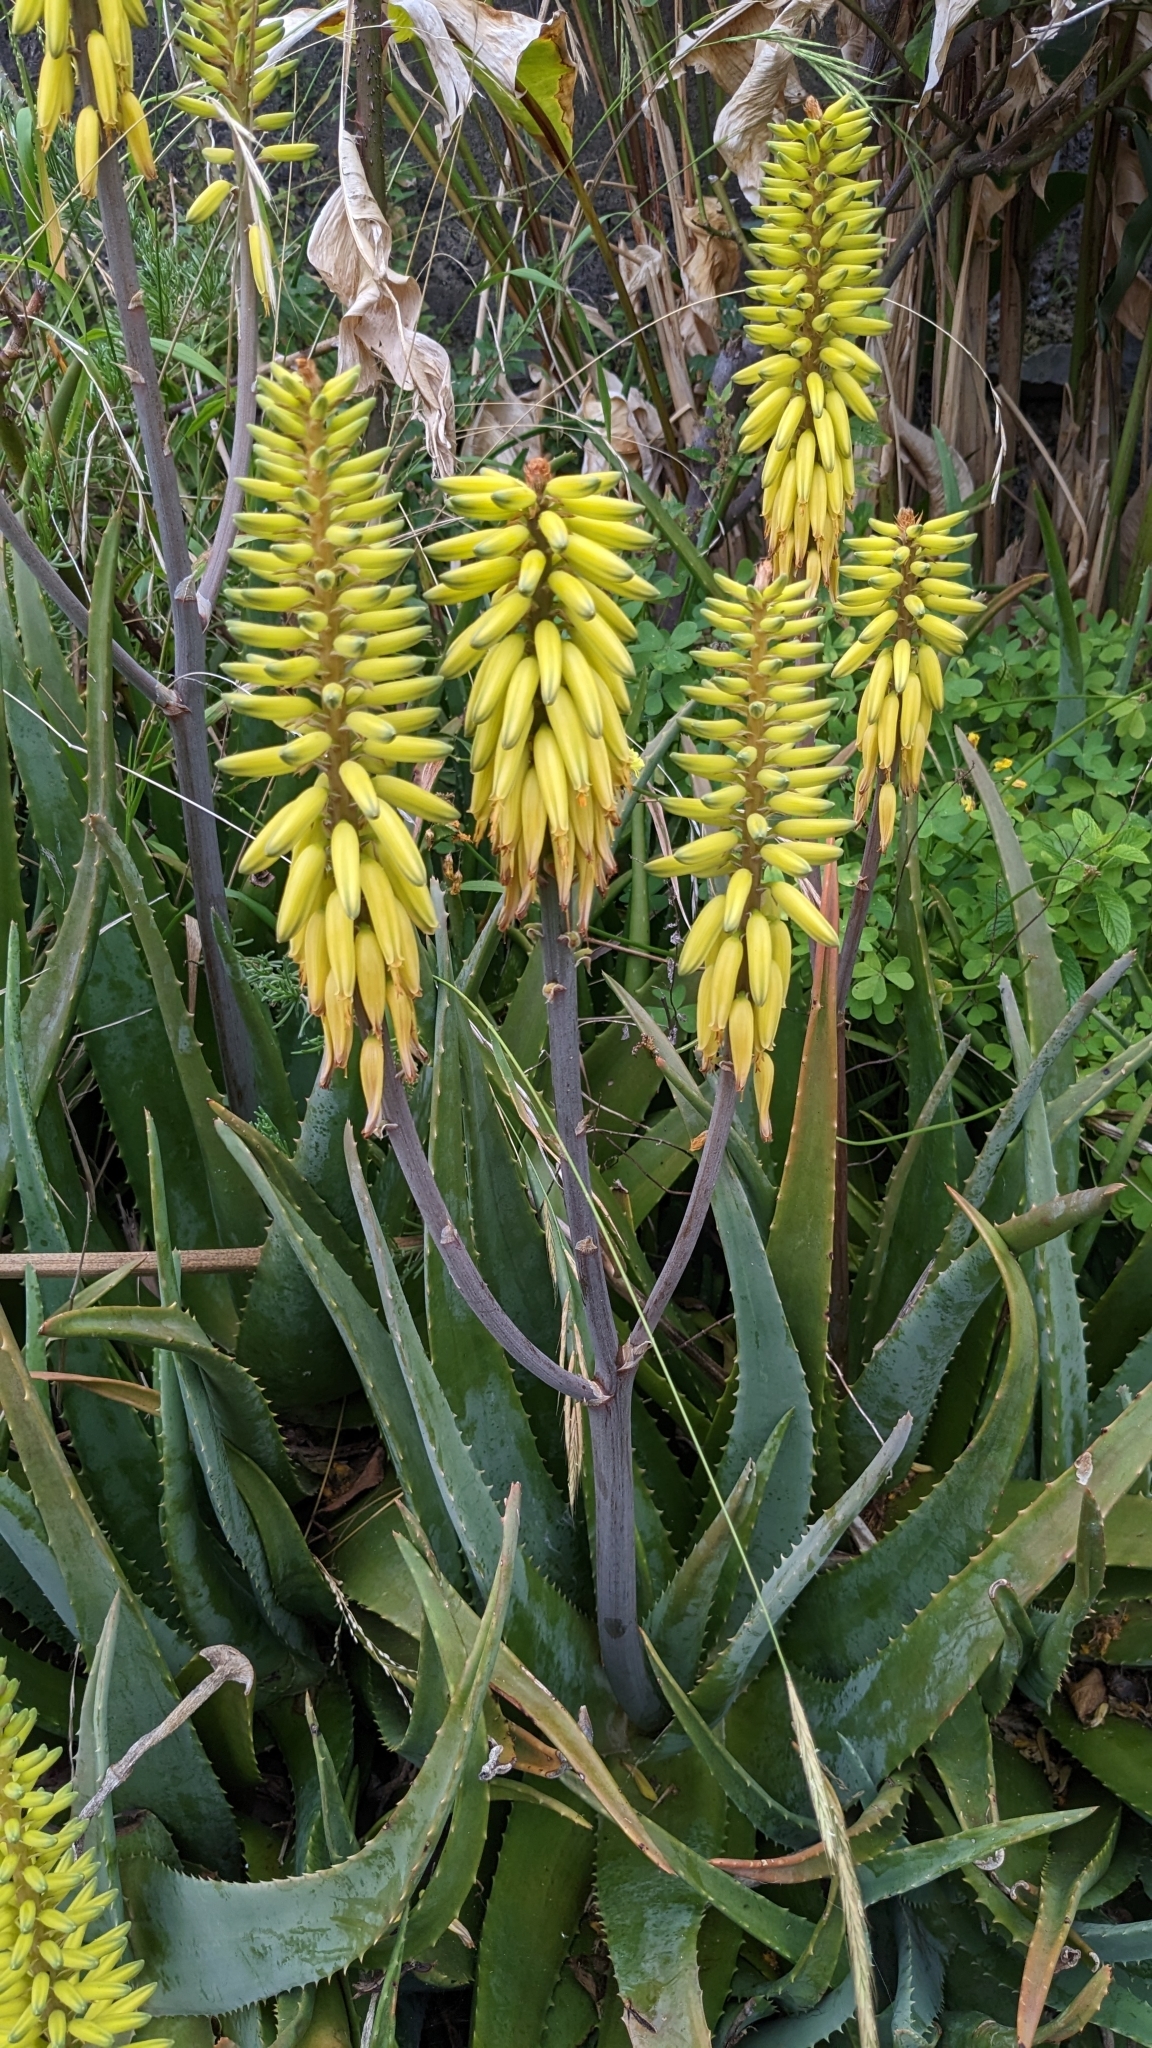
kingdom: Plantae
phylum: Tracheophyta
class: Liliopsida
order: Asparagales
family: Asphodelaceae
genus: Aloe
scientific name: Aloe vera
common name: Barbados aloe
